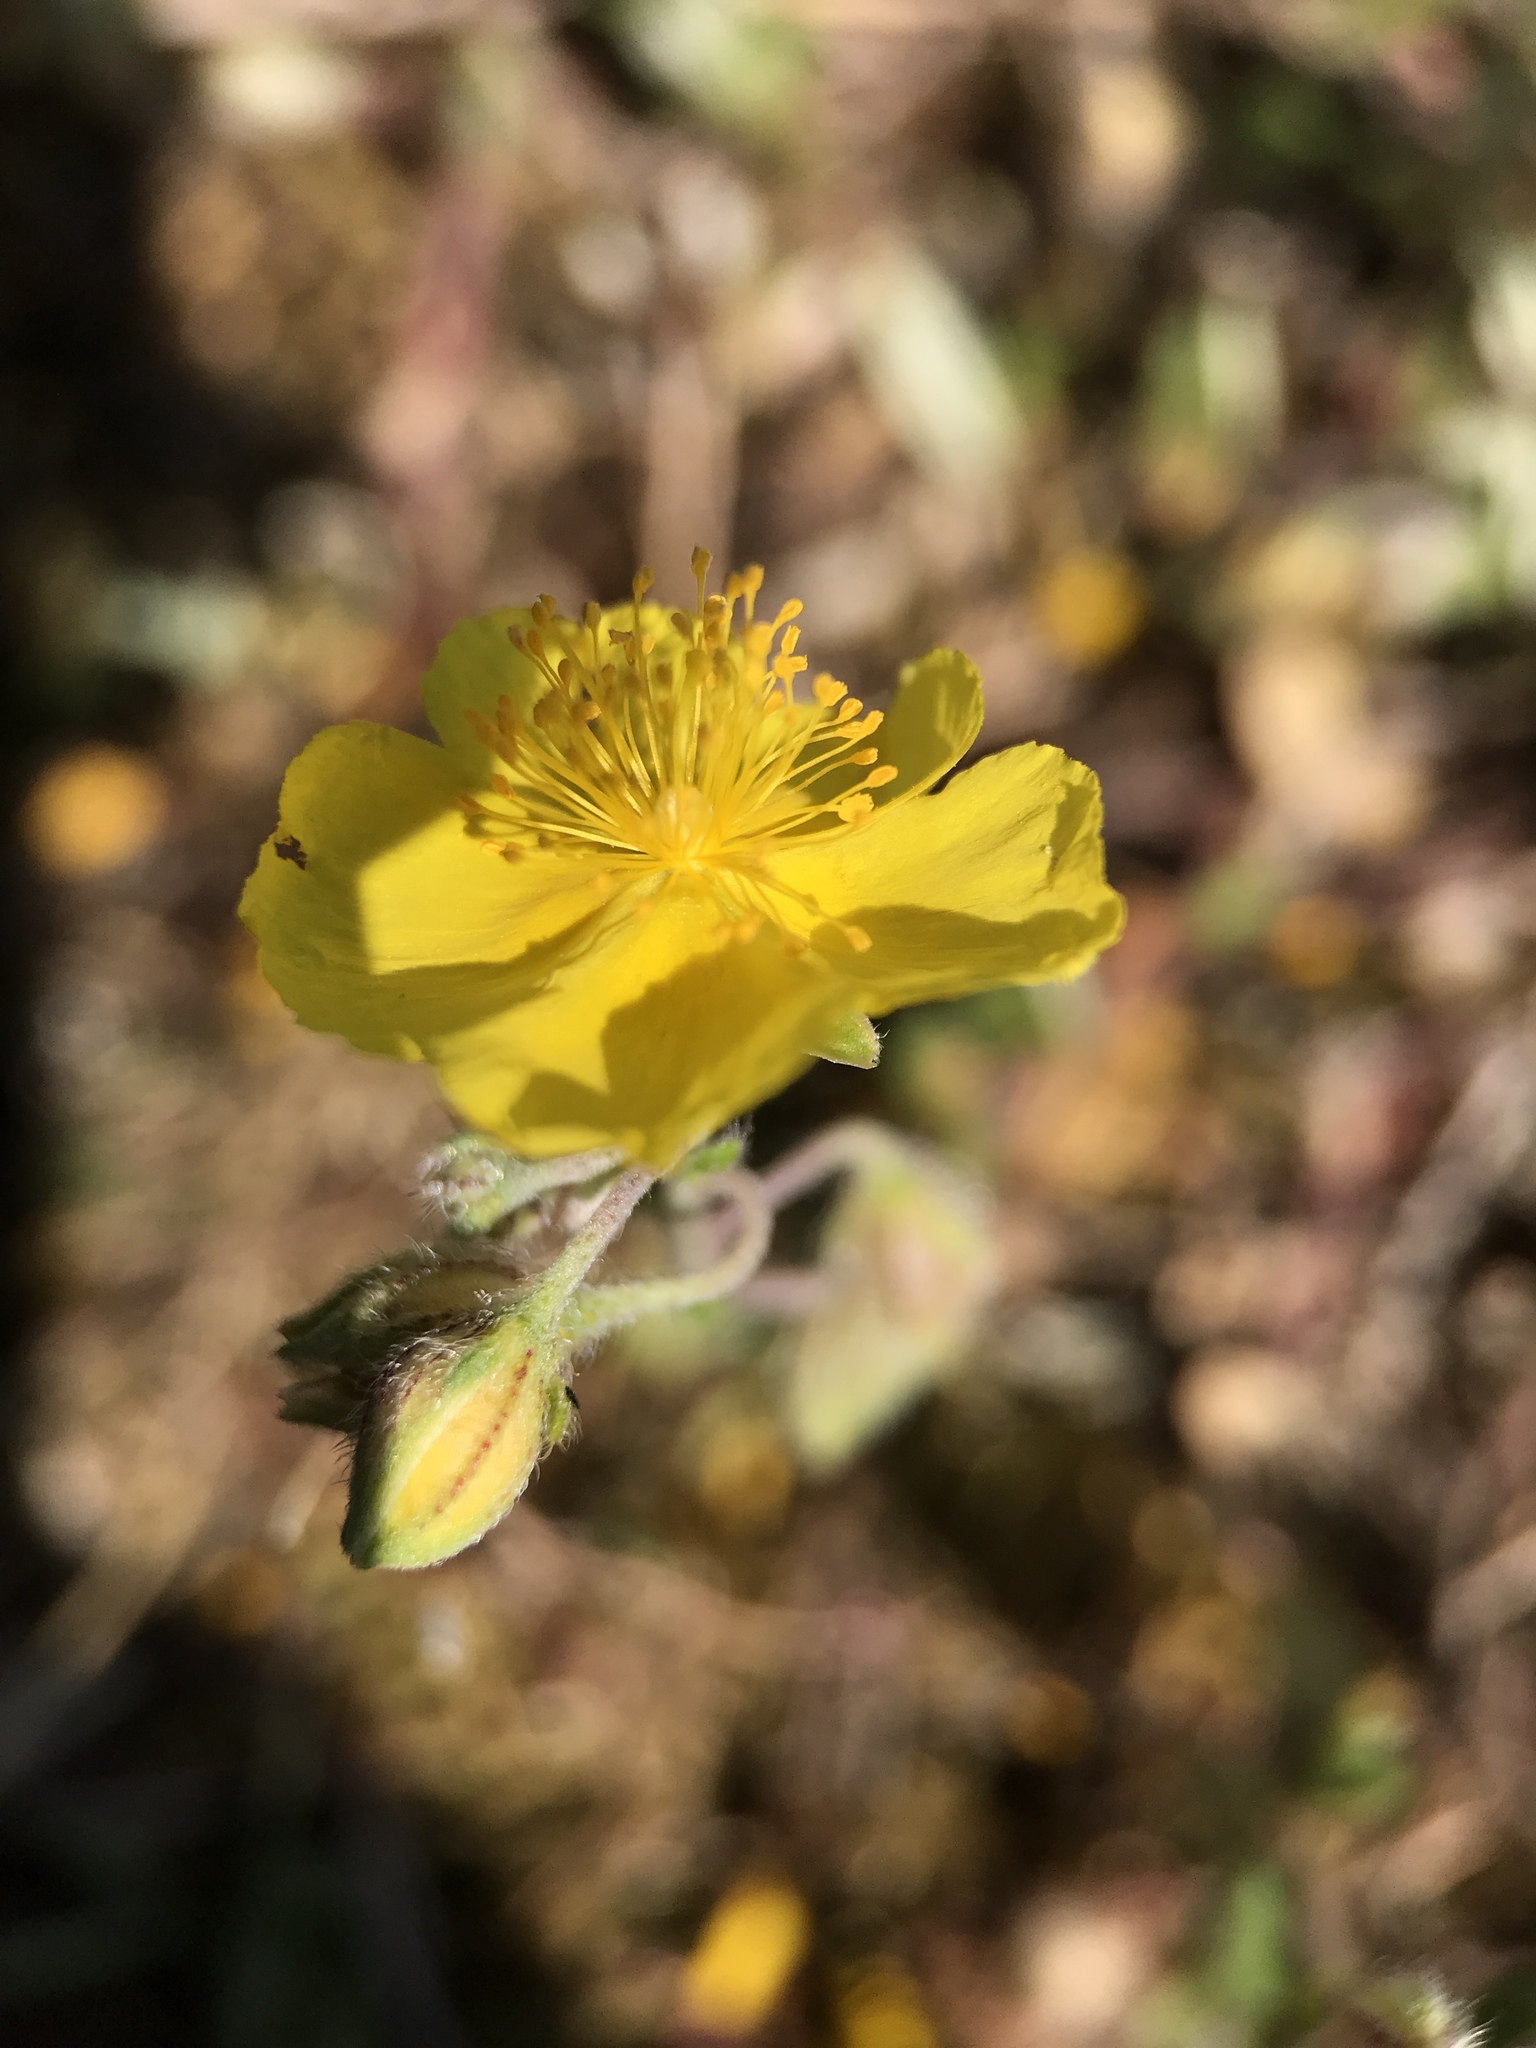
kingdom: Plantae
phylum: Tracheophyta
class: Magnoliopsida
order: Malvales
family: Cistaceae
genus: Helianthemum
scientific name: Helianthemum nummularium
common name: Common rock-rose
